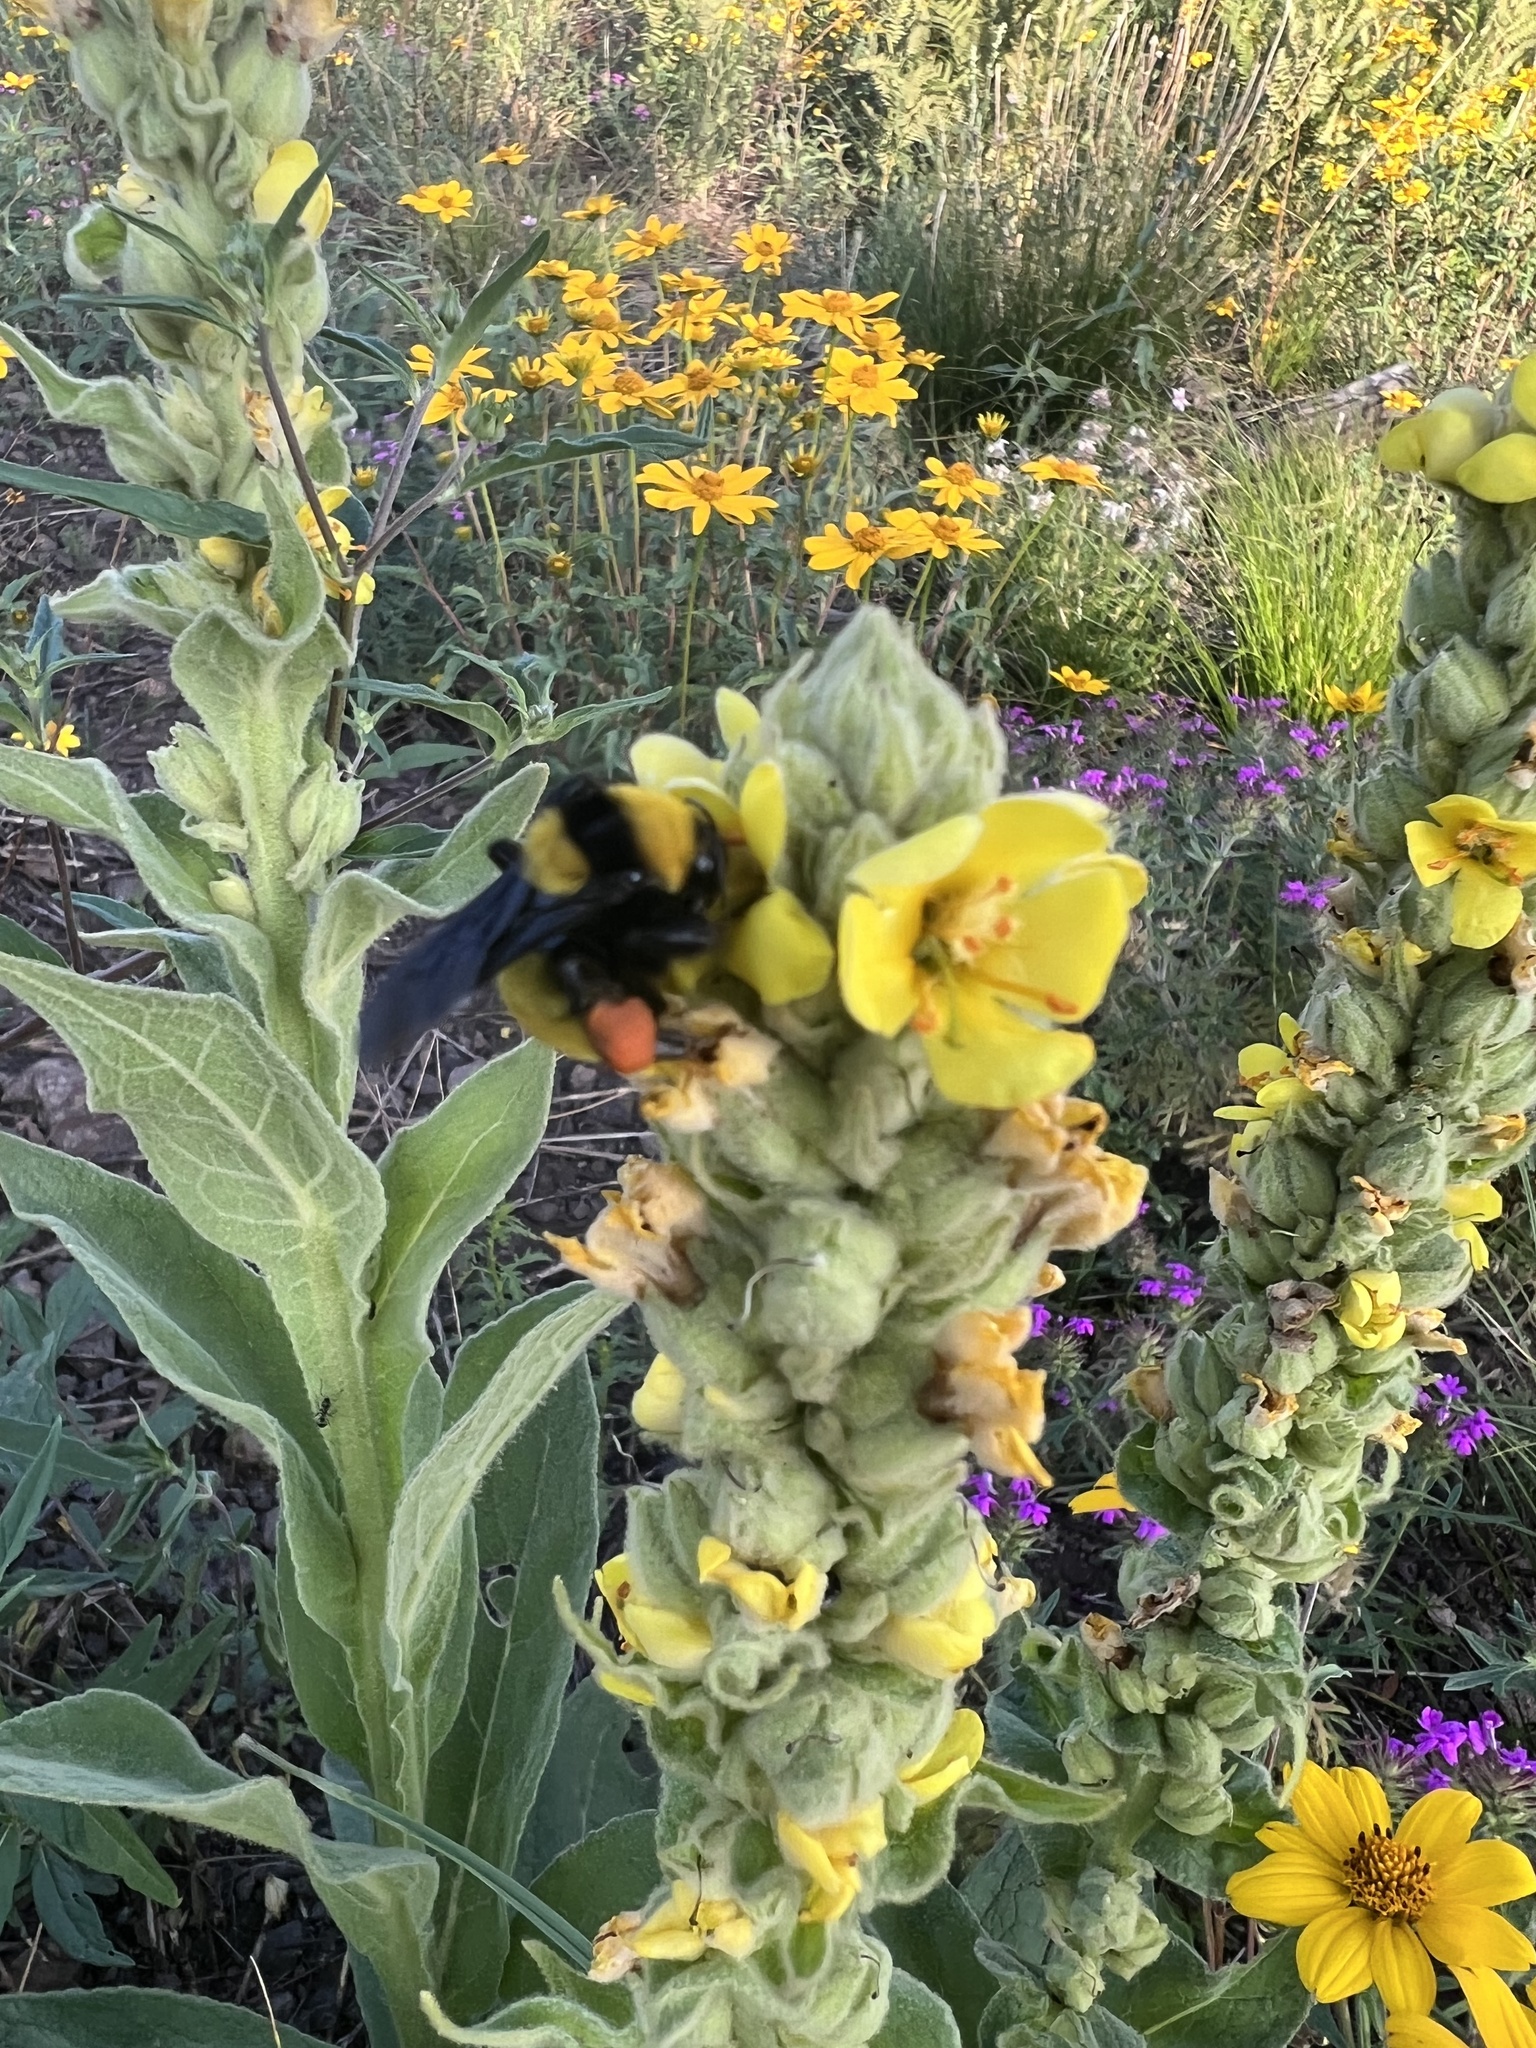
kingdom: Plantae
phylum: Tracheophyta
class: Magnoliopsida
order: Lamiales
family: Scrophulariaceae
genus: Verbascum
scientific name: Verbascum thapsus
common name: Common mullein
